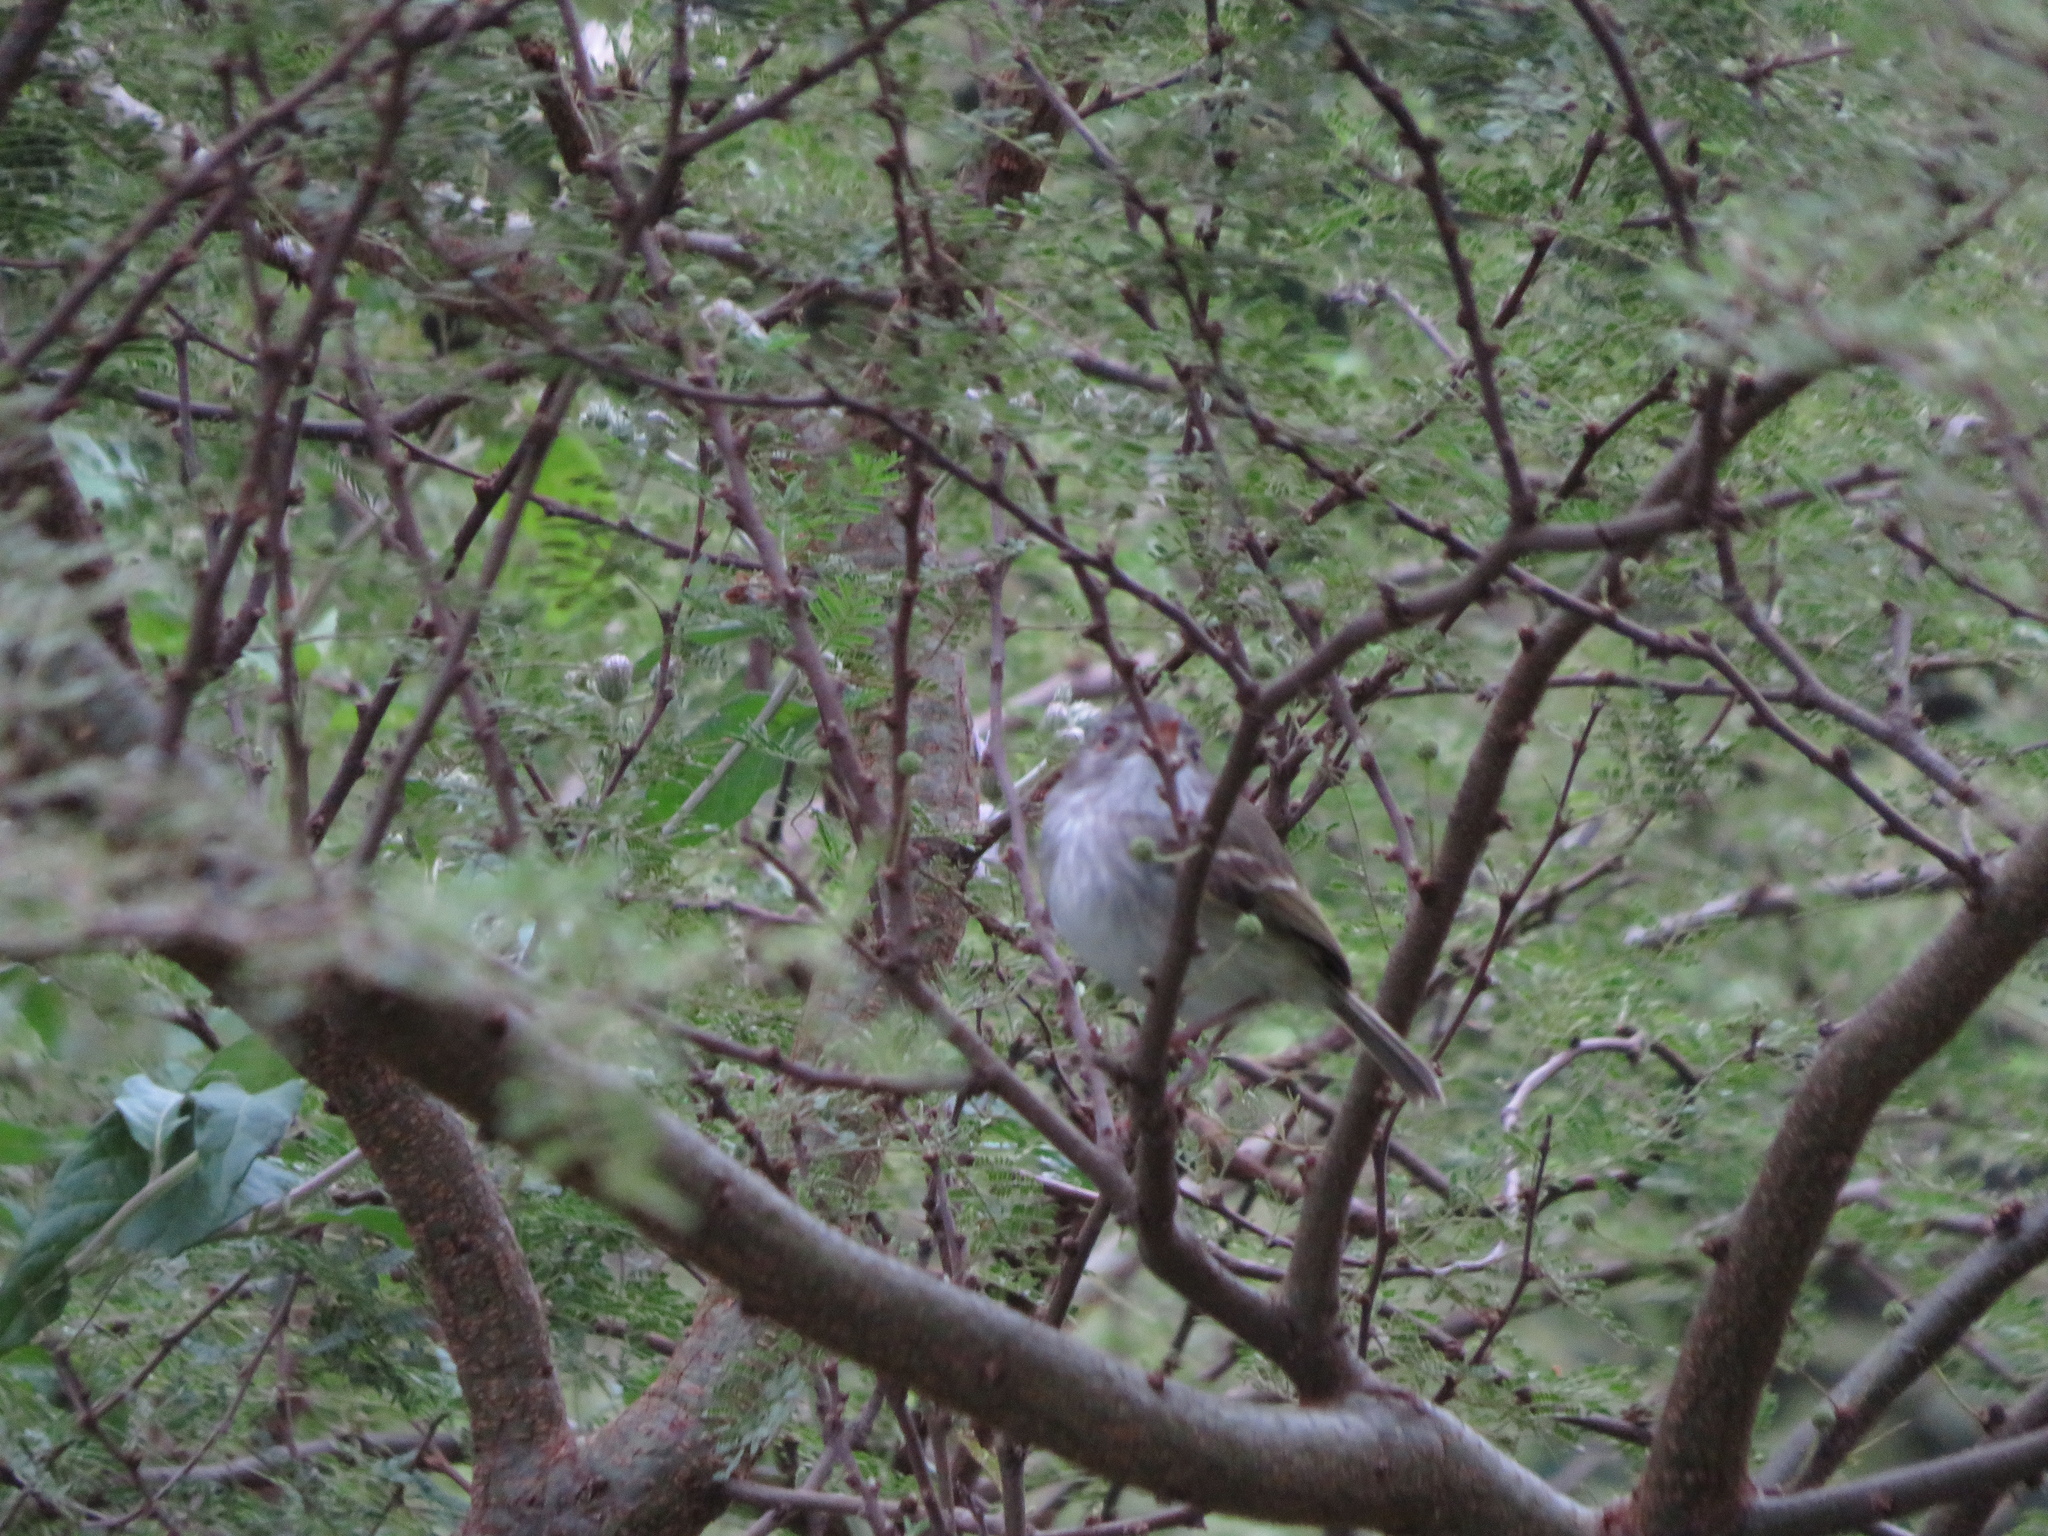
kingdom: Animalia
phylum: Chordata
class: Aves
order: Passeriformes
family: Tyrannidae
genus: Hemitriccus
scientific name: Hemitriccus margaritaceiventer
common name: Pearly-vented tody-tyrant
